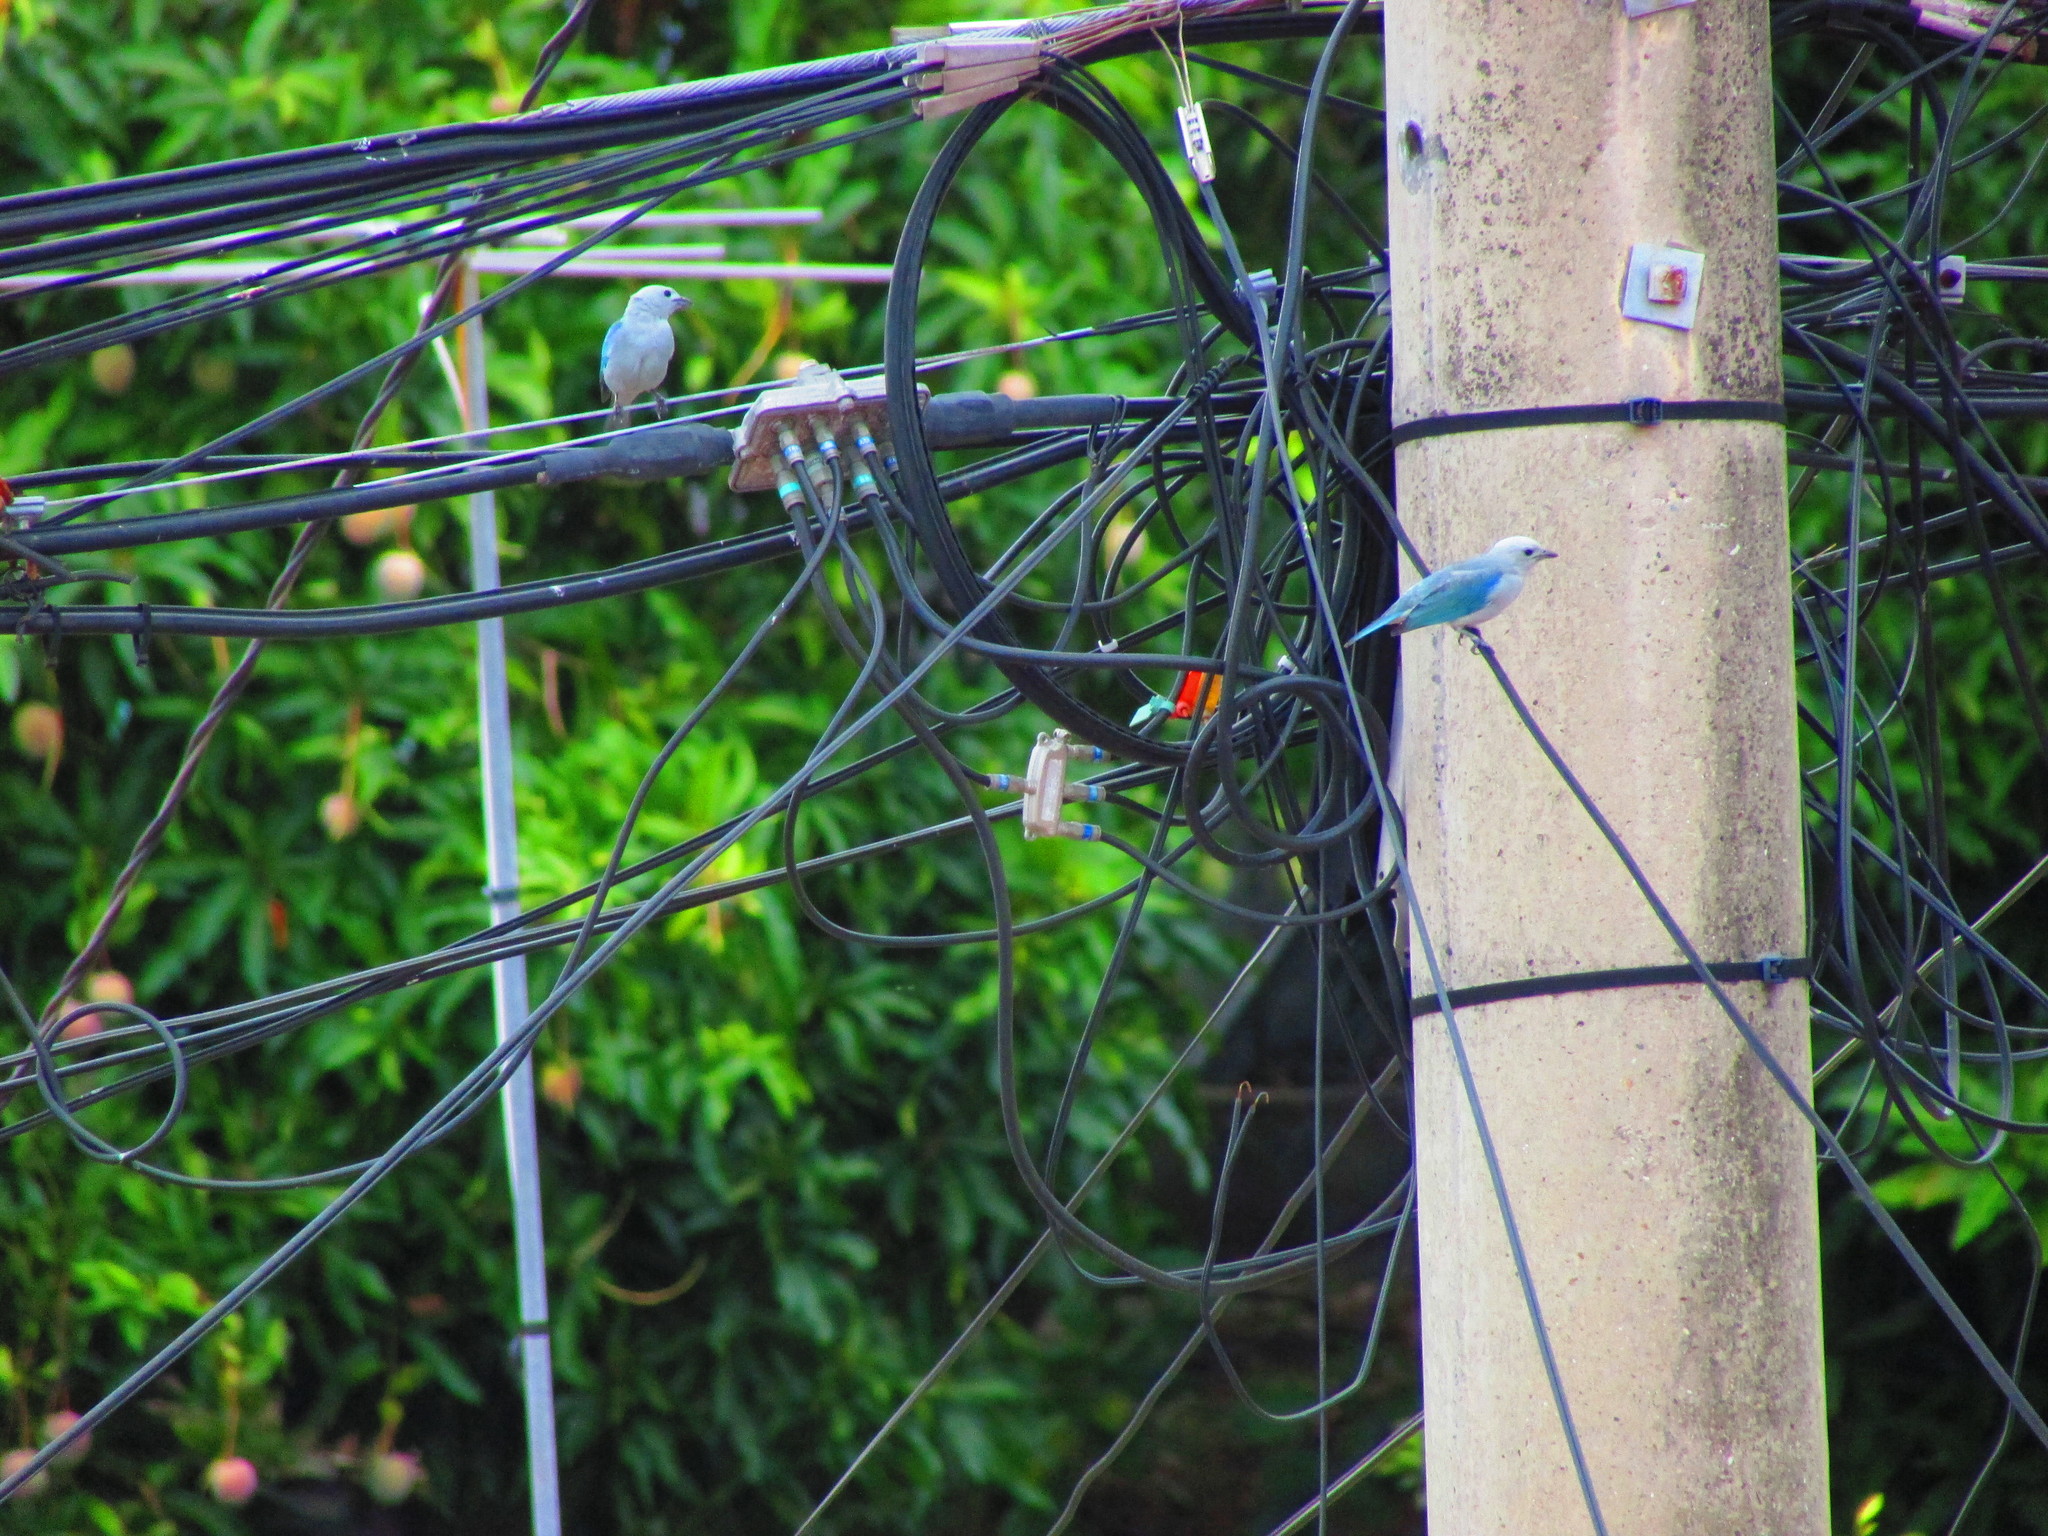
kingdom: Animalia
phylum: Chordata
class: Aves
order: Passeriformes
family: Thraupidae
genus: Thraupis
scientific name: Thraupis episcopus
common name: Blue-grey tanager
